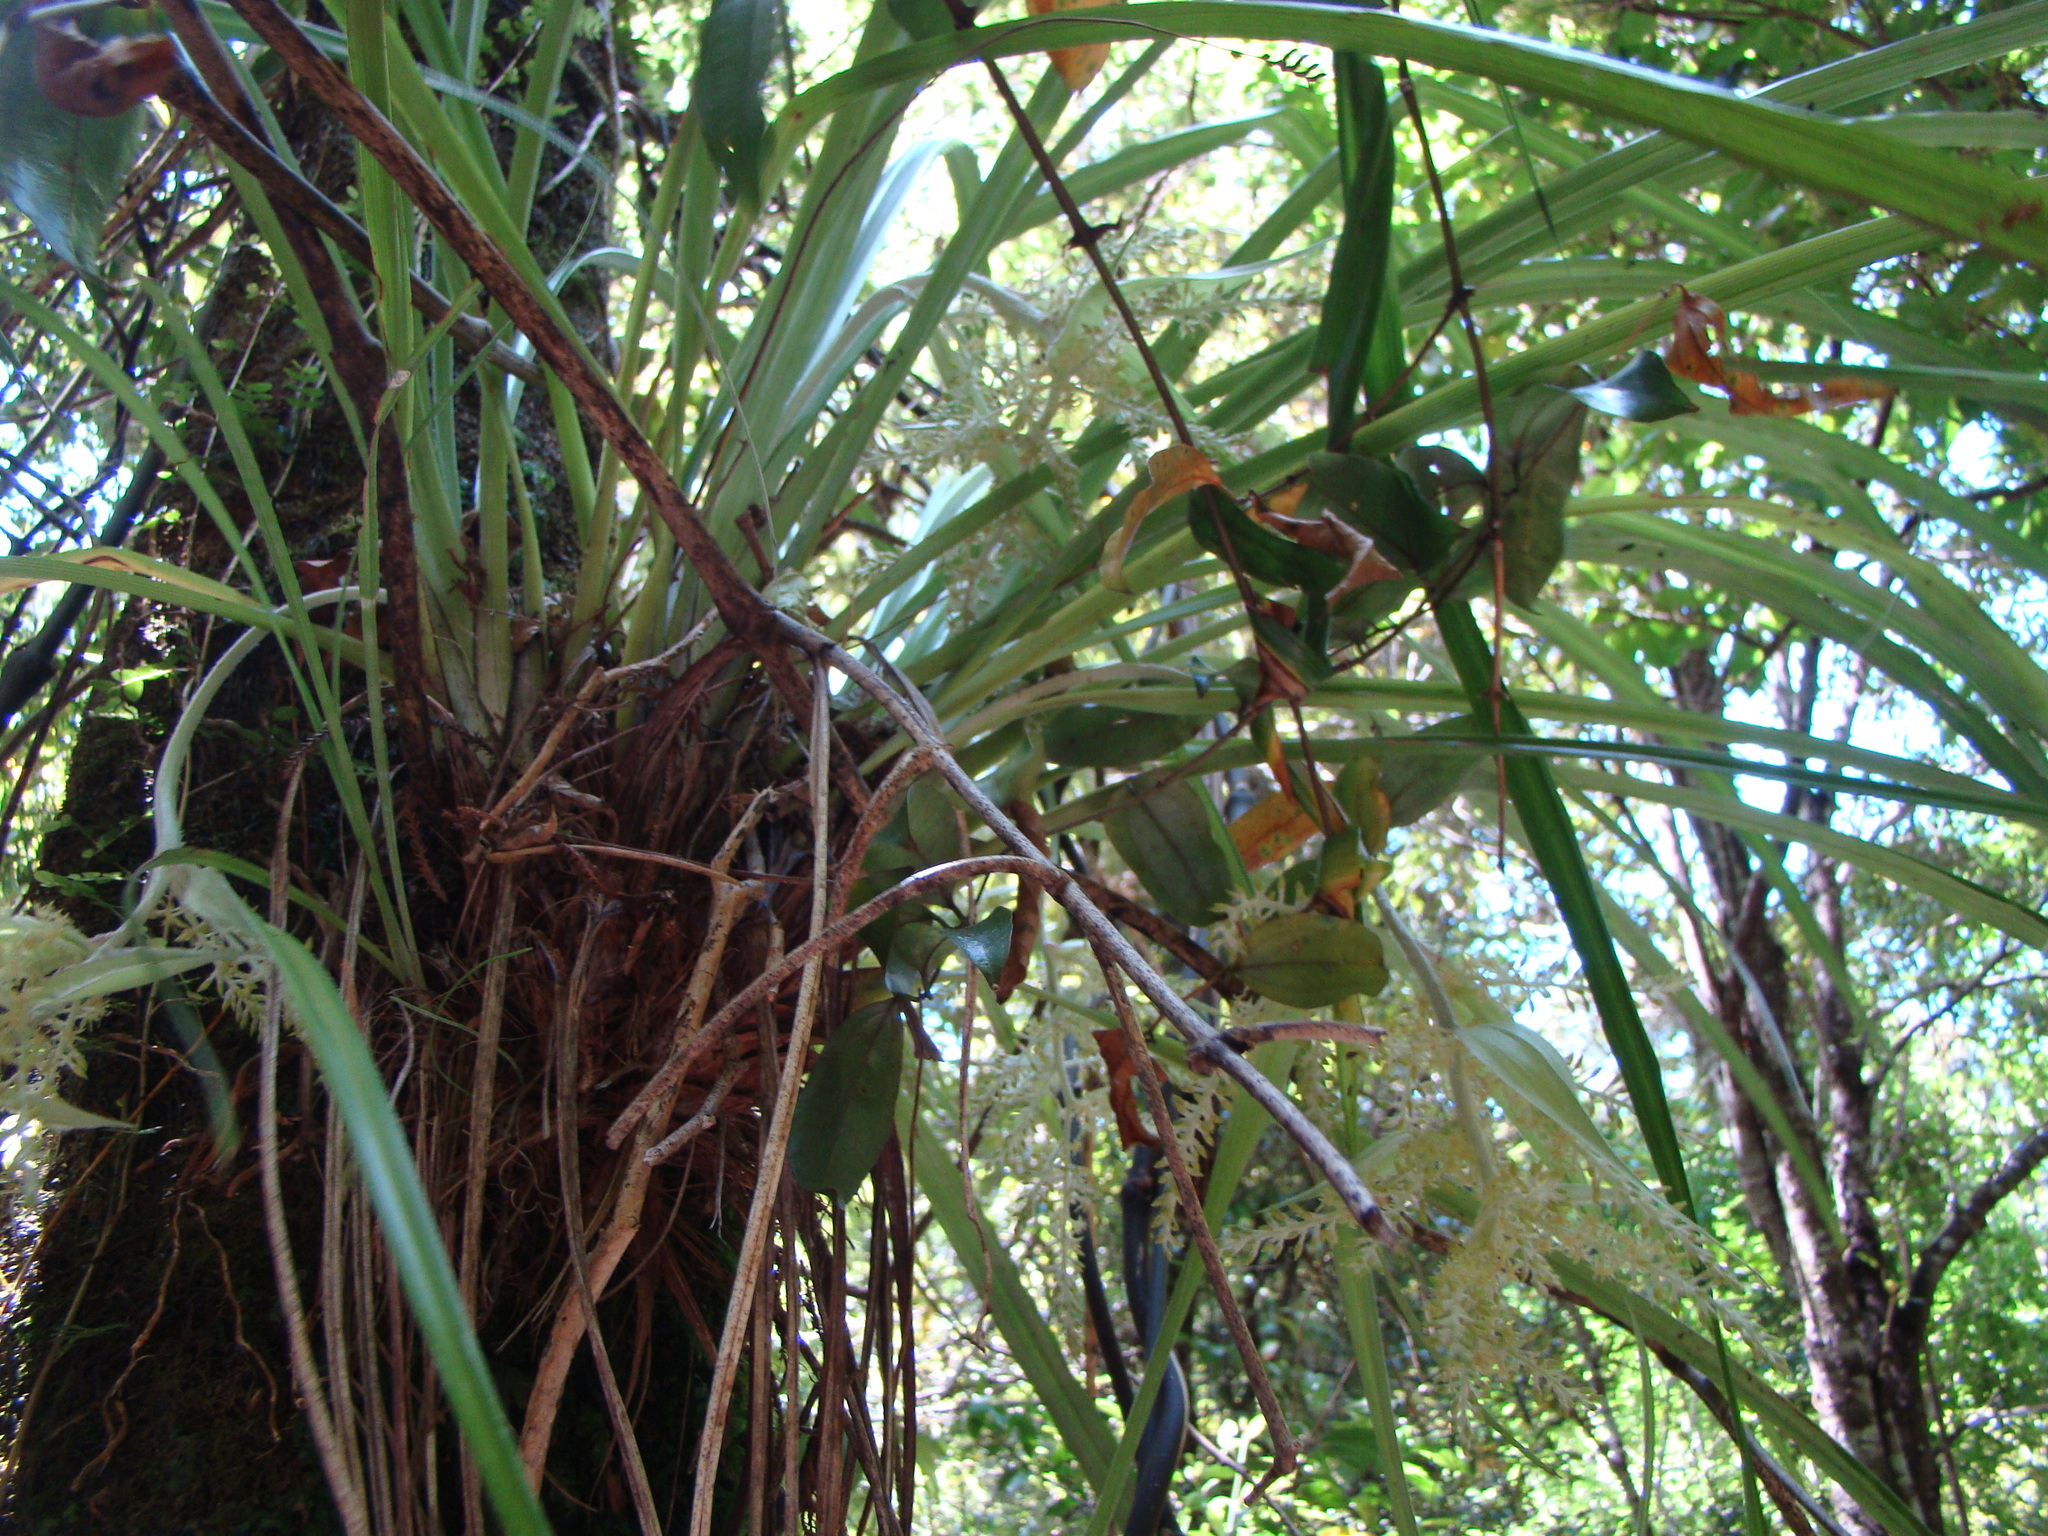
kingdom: Plantae
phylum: Tracheophyta
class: Liliopsida
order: Asparagales
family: Asteliaceae
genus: Astelia
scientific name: Astelia solandri
